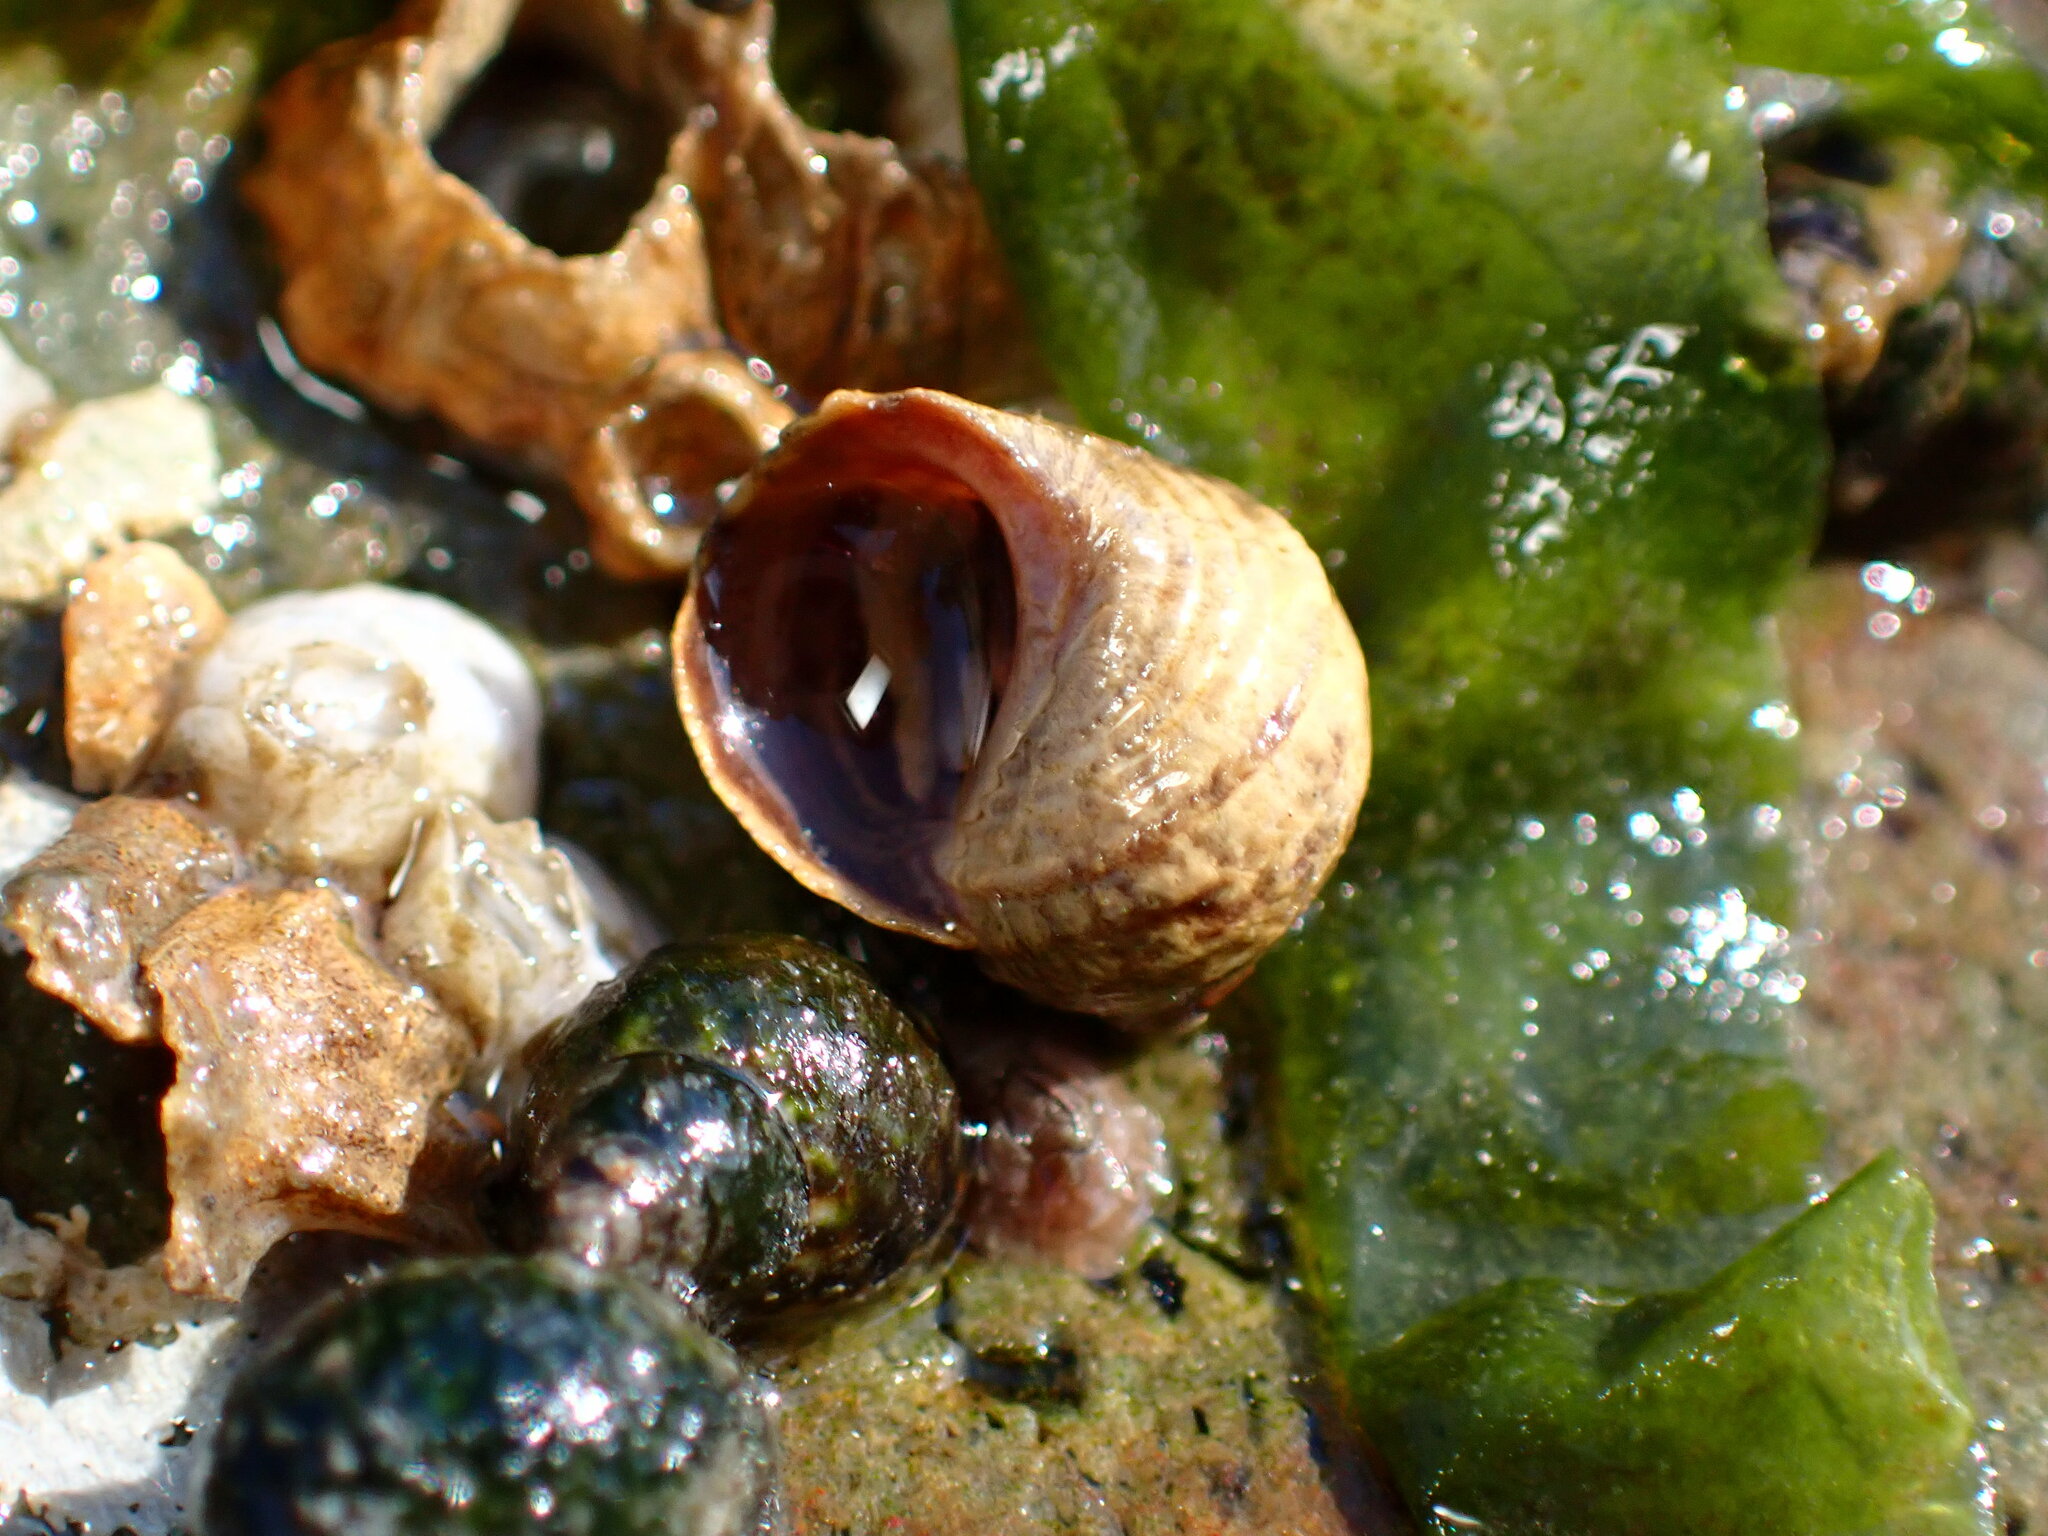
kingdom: Animalia
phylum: Mollusca
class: Gastropoda
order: Littorinimorpha
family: Littorinidae
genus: Littorina
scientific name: Littorina sitkana
